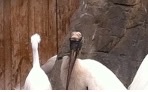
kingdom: Animalia
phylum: Chordata
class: Aves
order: Ciconiiformes
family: Ciconiidae
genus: Mycteria
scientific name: Mycteria americana
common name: Wood stork
